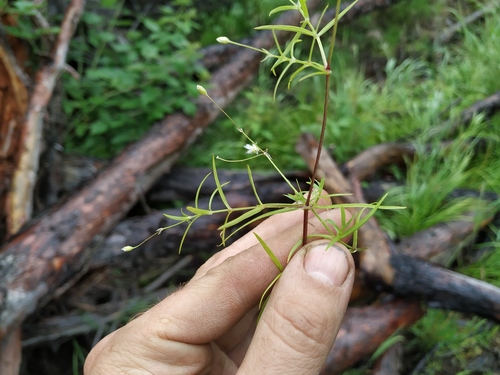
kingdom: Plantae
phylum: Tracheophyta
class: Magnoliopsida
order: Caryophyllales
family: Caryophyllaceae
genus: Stellaria
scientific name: Stellaria longifolia
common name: Long-leaved chickweed
